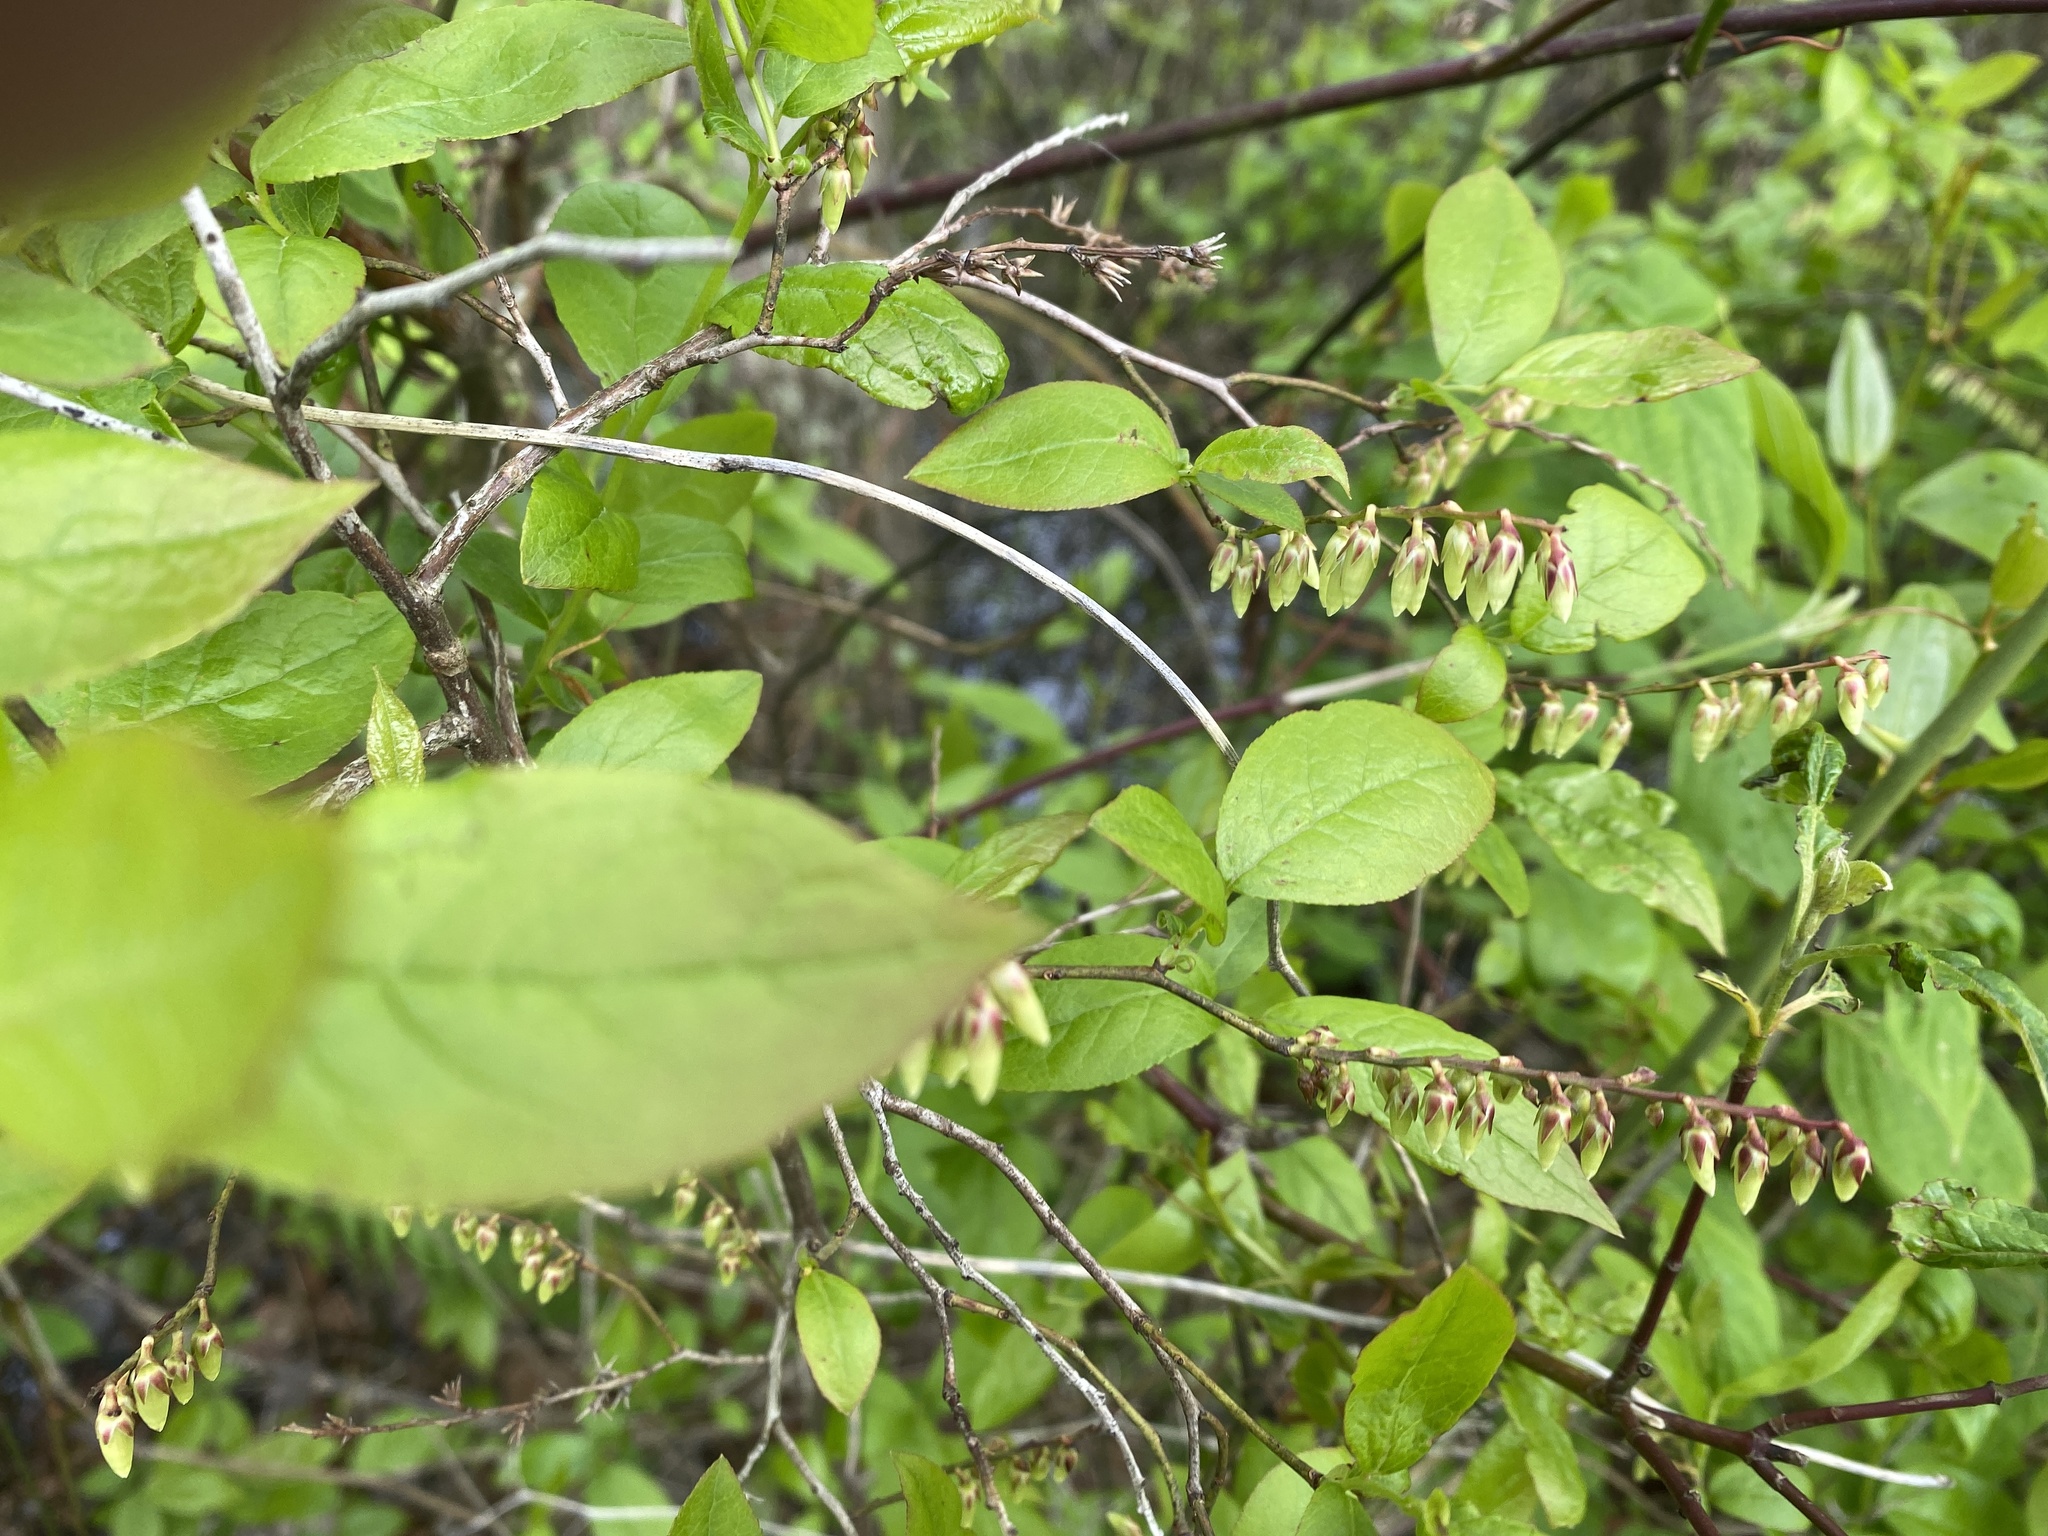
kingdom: Plantae
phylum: Tracheophyta
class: Magnoliopsida
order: Ericales
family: Ericaceae
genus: Eubotrys
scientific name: Eubotrys racemosa
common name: Fetterbush
